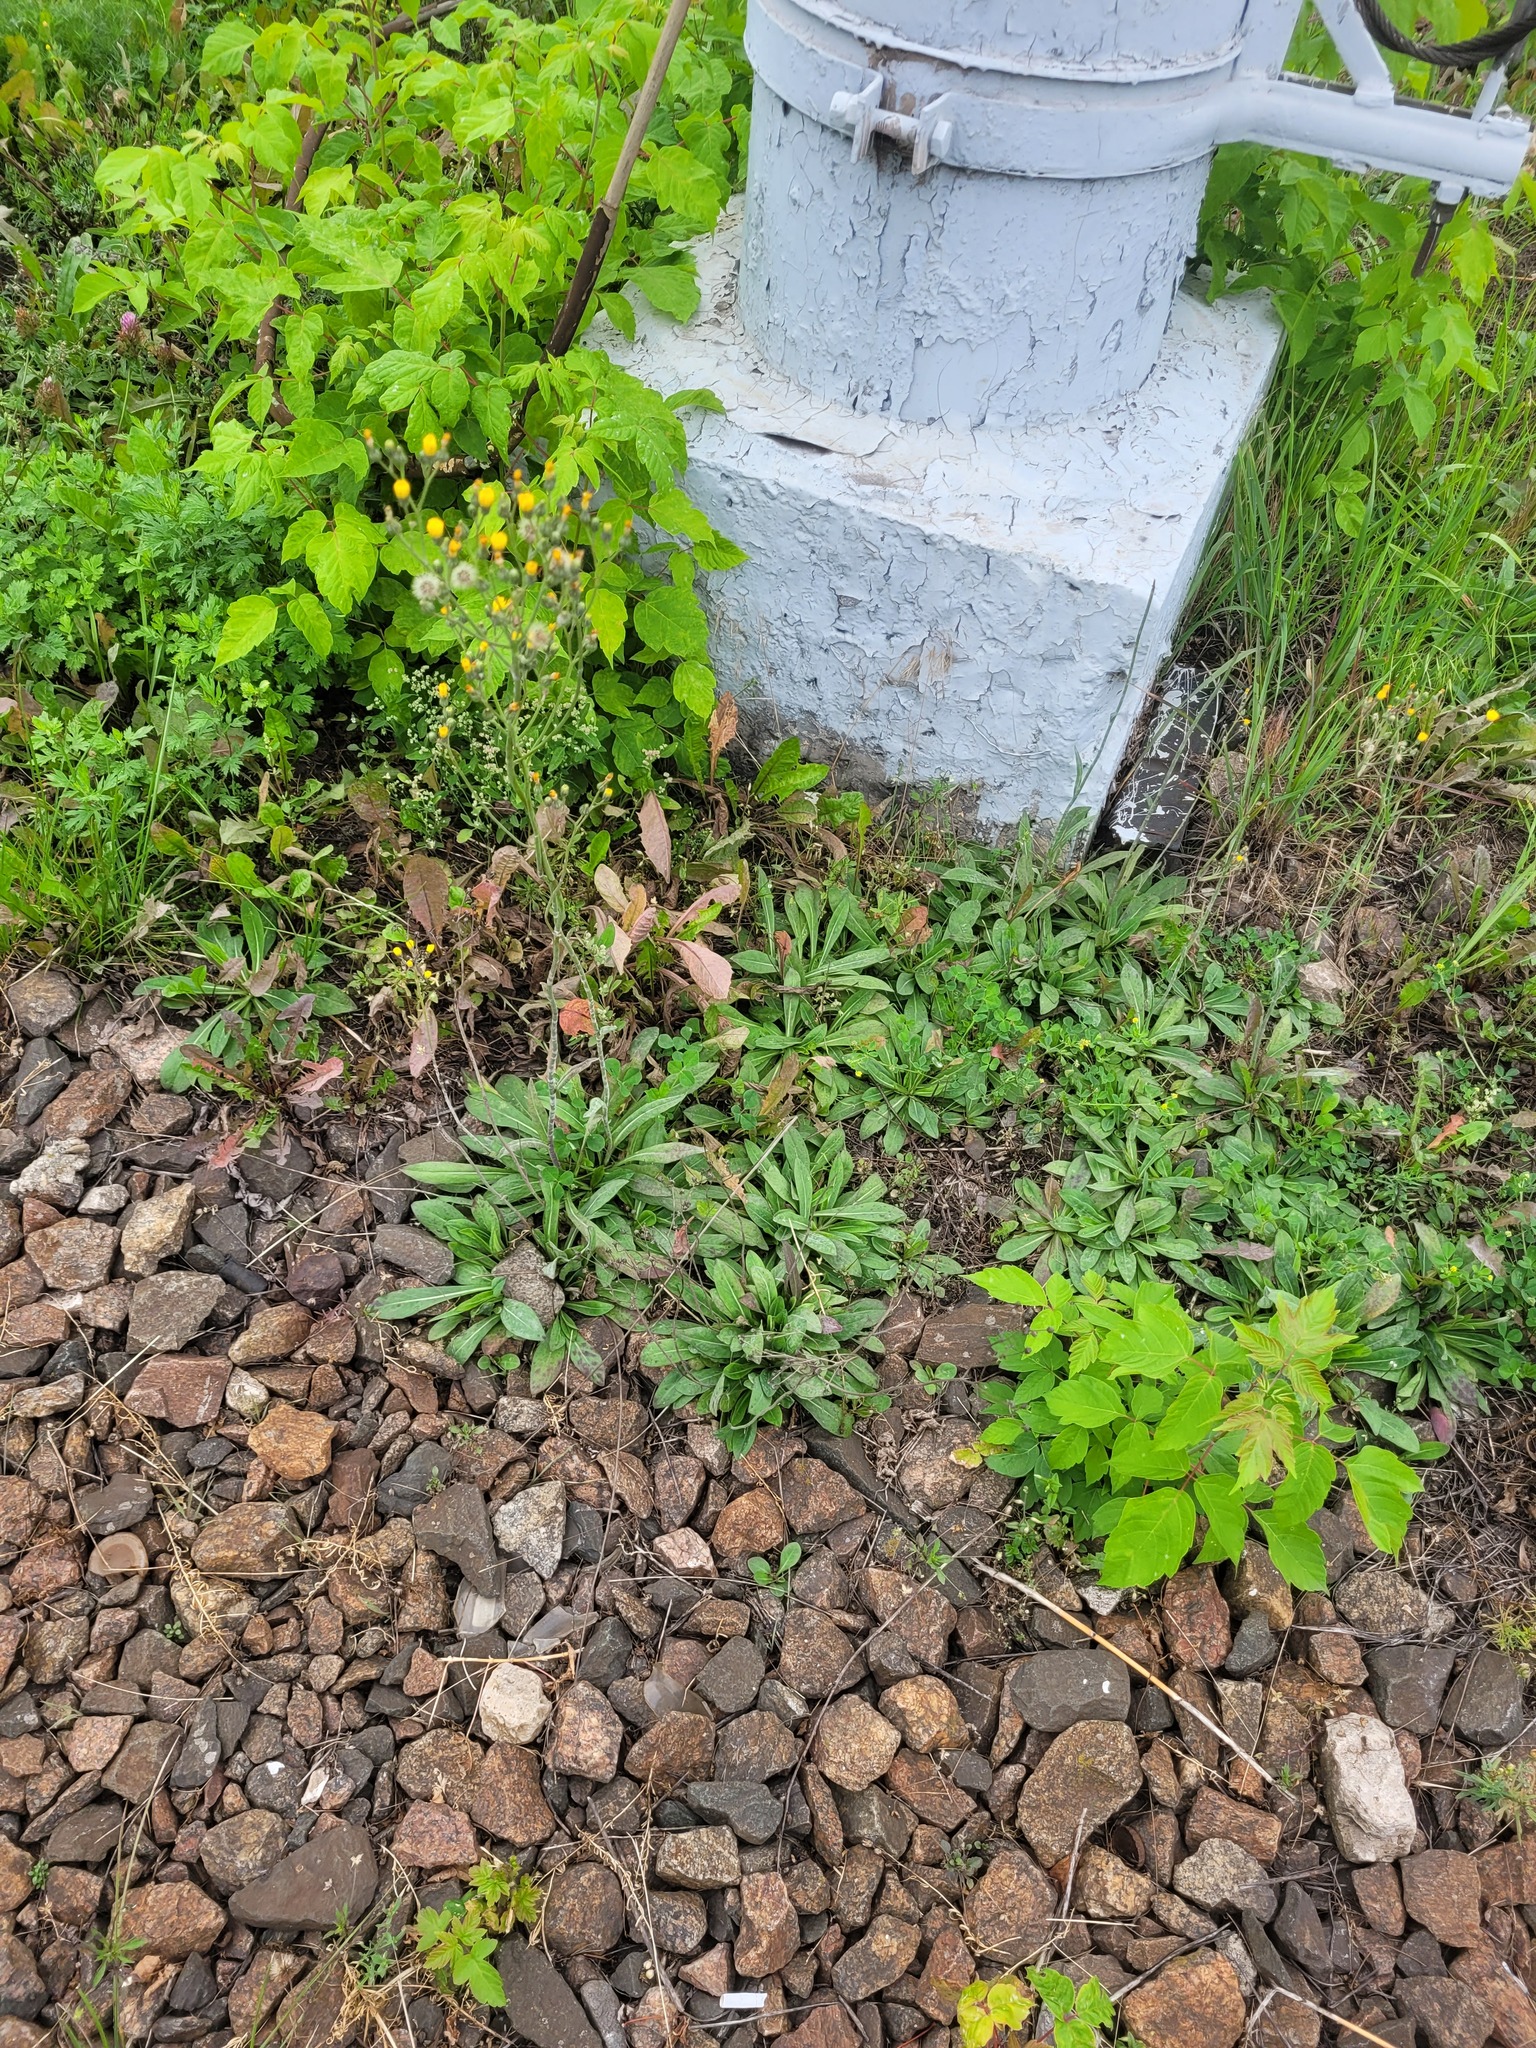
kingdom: Plantae
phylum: Tracheophyta
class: Magnoliopsida
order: Asterales
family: Asteraceae
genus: Pilosella
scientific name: Pilosella
